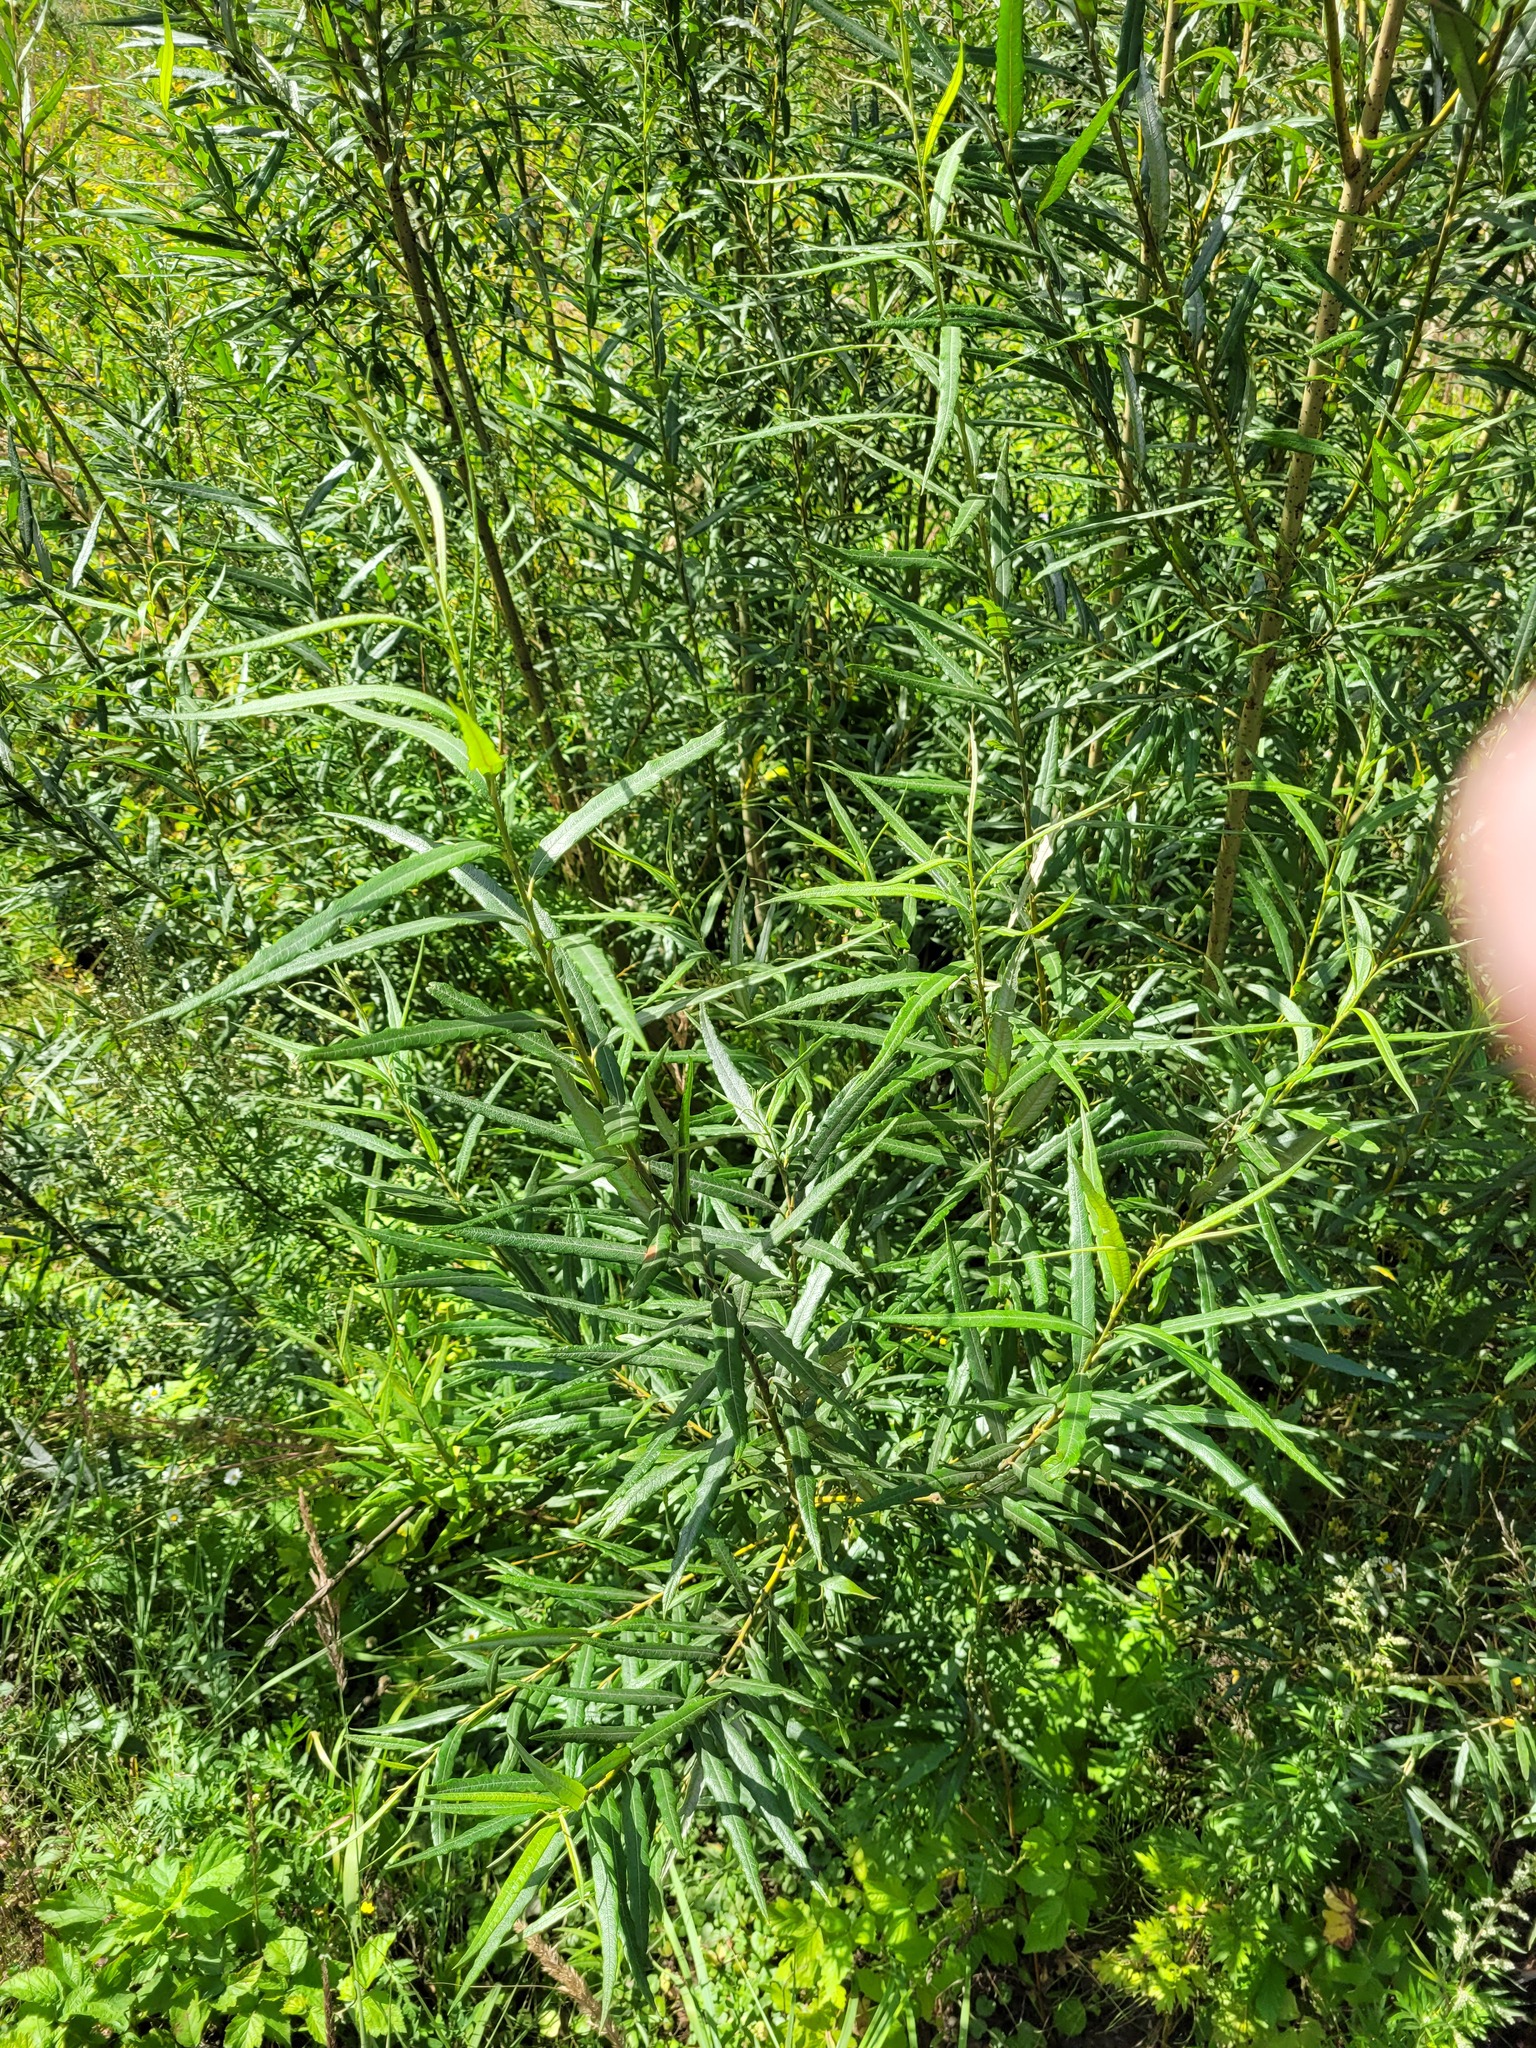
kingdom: Plantae
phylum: Tracheophyta
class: Magnoliopsida
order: Malpighiales
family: Salicaceae
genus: Salix
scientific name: Salix viminalis
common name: Osier
